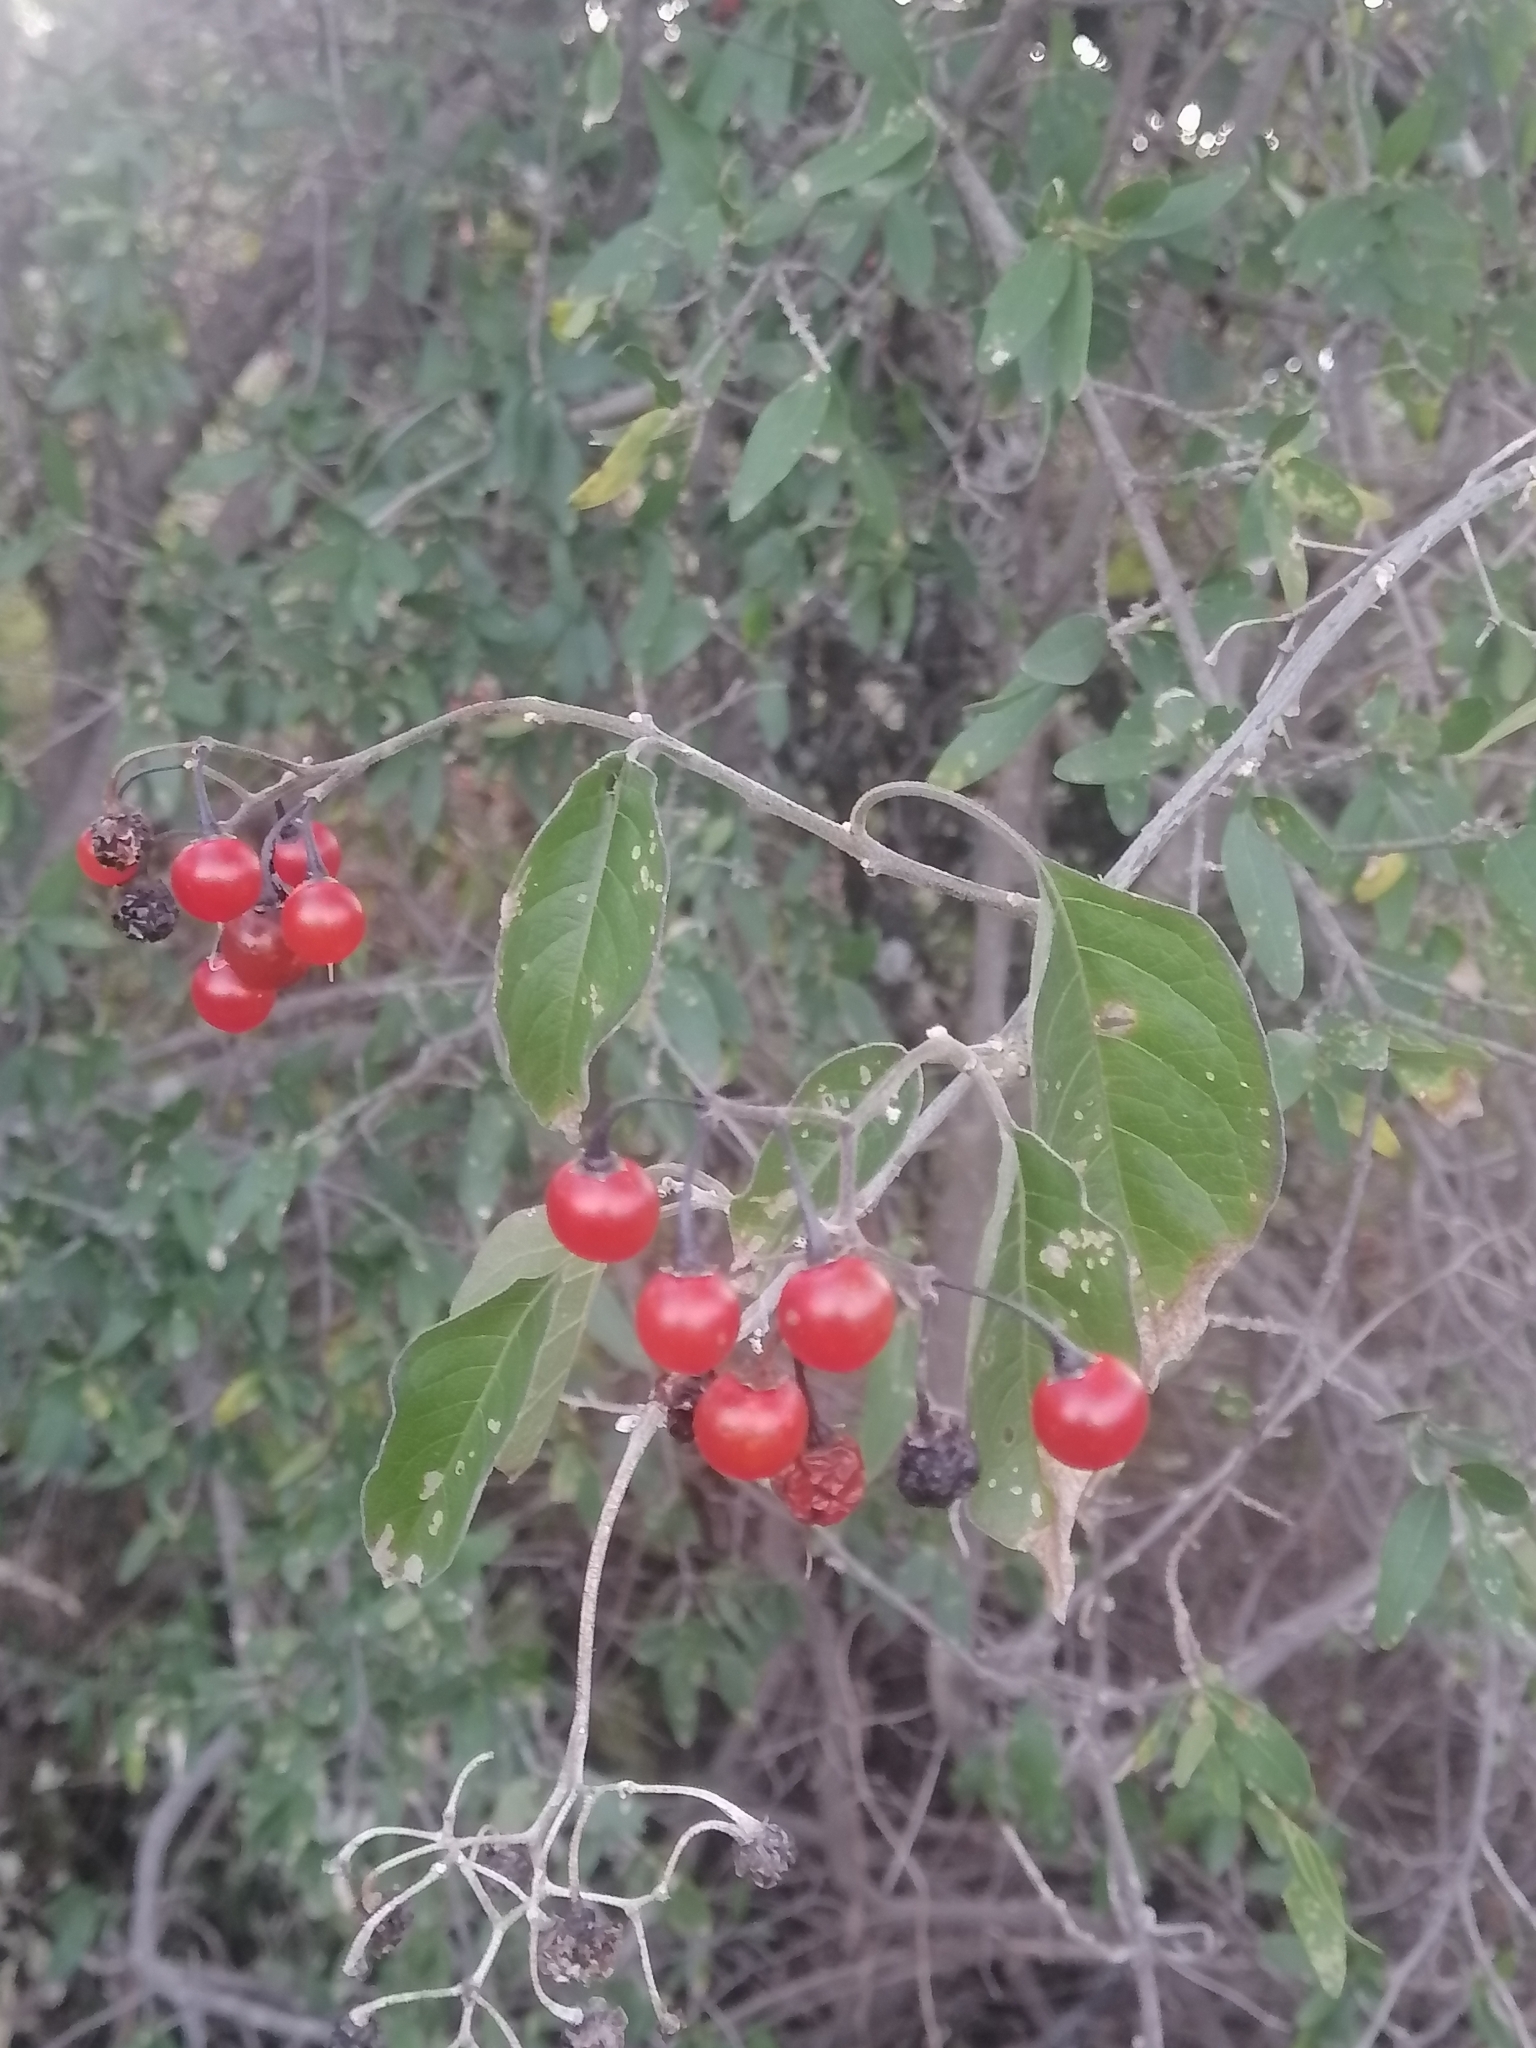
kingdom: Plantae
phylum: Tracheophyta
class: Magnoliopsida
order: Solanales
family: Solanaceae
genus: Solanum
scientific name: Solanum dulcamaroides
